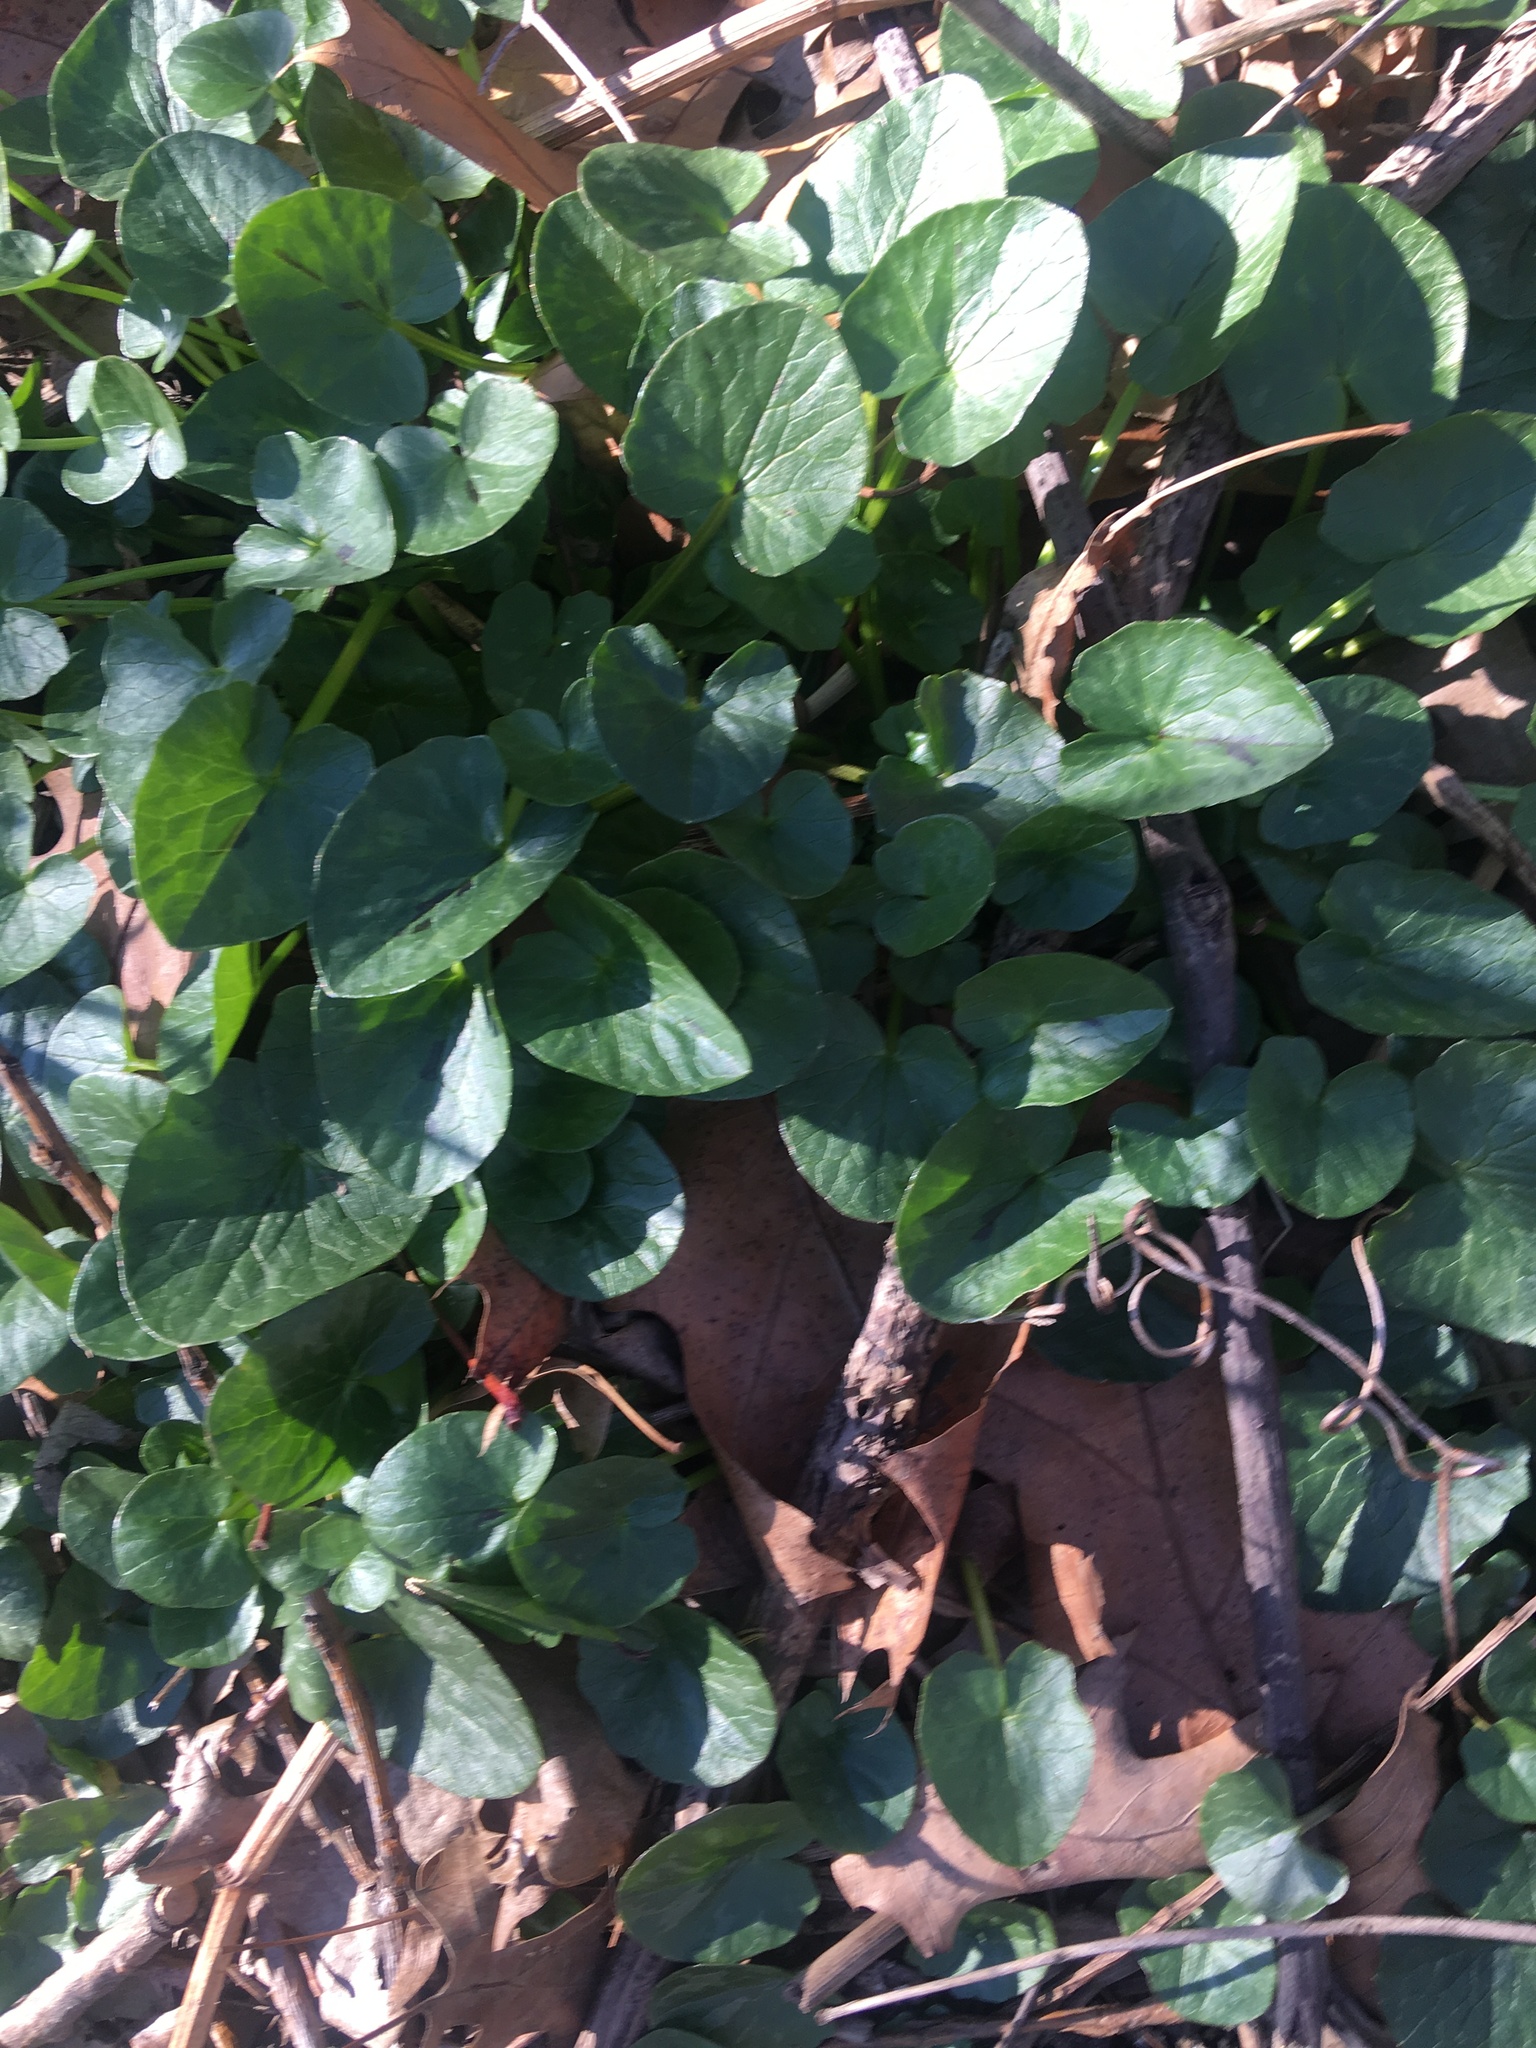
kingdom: Plantae
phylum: Tracheophyta
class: Magnoliopsida
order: Ranunculales
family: Ranunculaceae
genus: Ficaria
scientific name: Ficaria verna
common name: Lesser celandine
